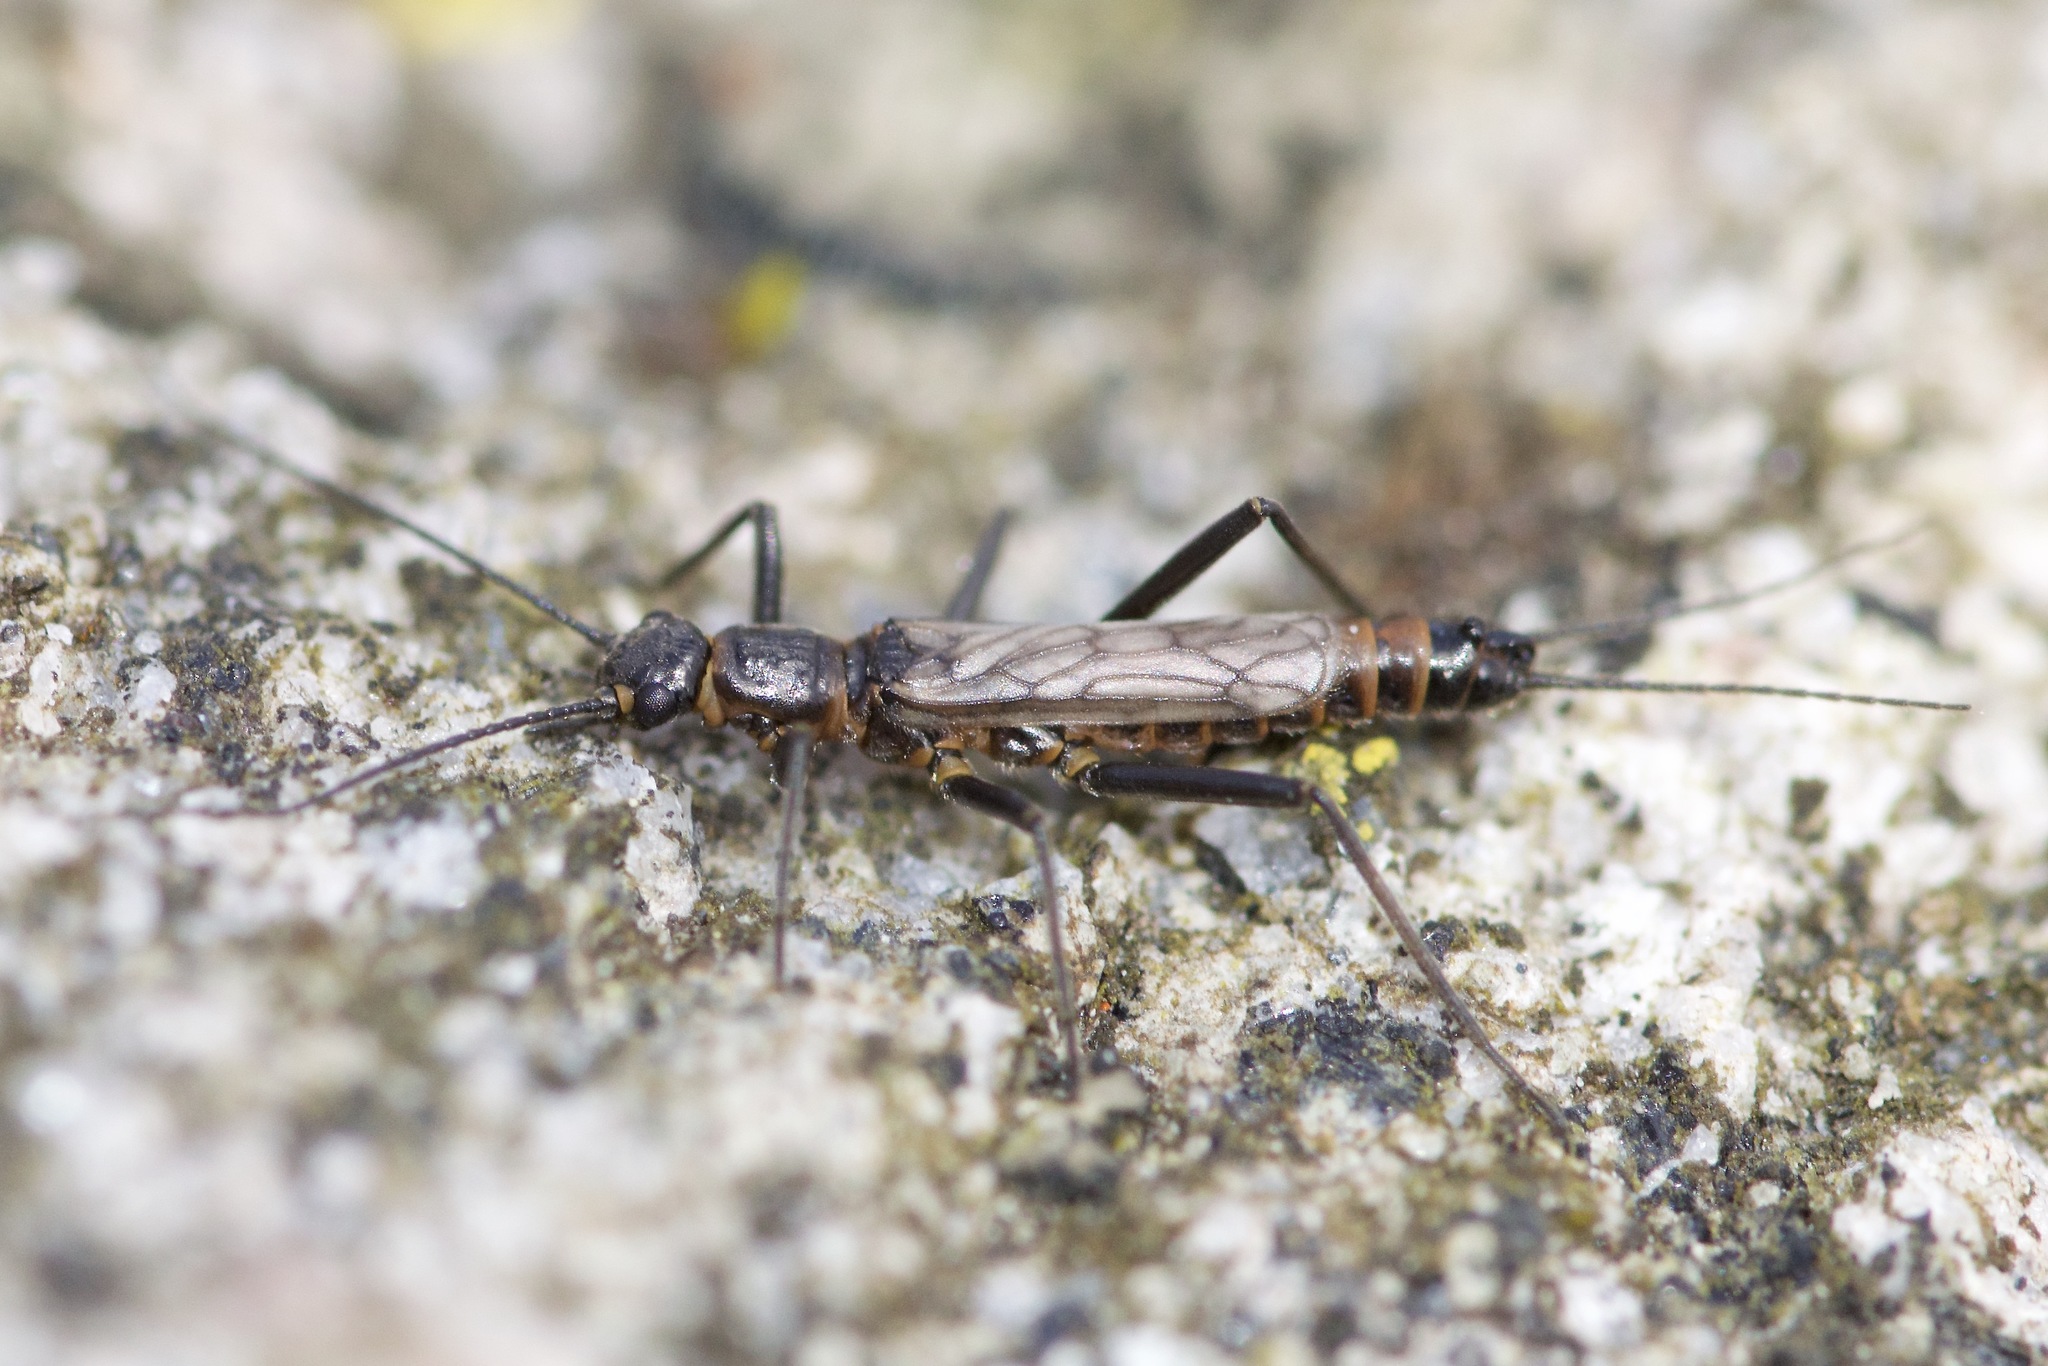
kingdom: Animalia
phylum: Arthropoda
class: Insecta
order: Plecoptera
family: Capniidae
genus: Allocapnia
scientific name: Allocapnia recta
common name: Eastern snowfly
